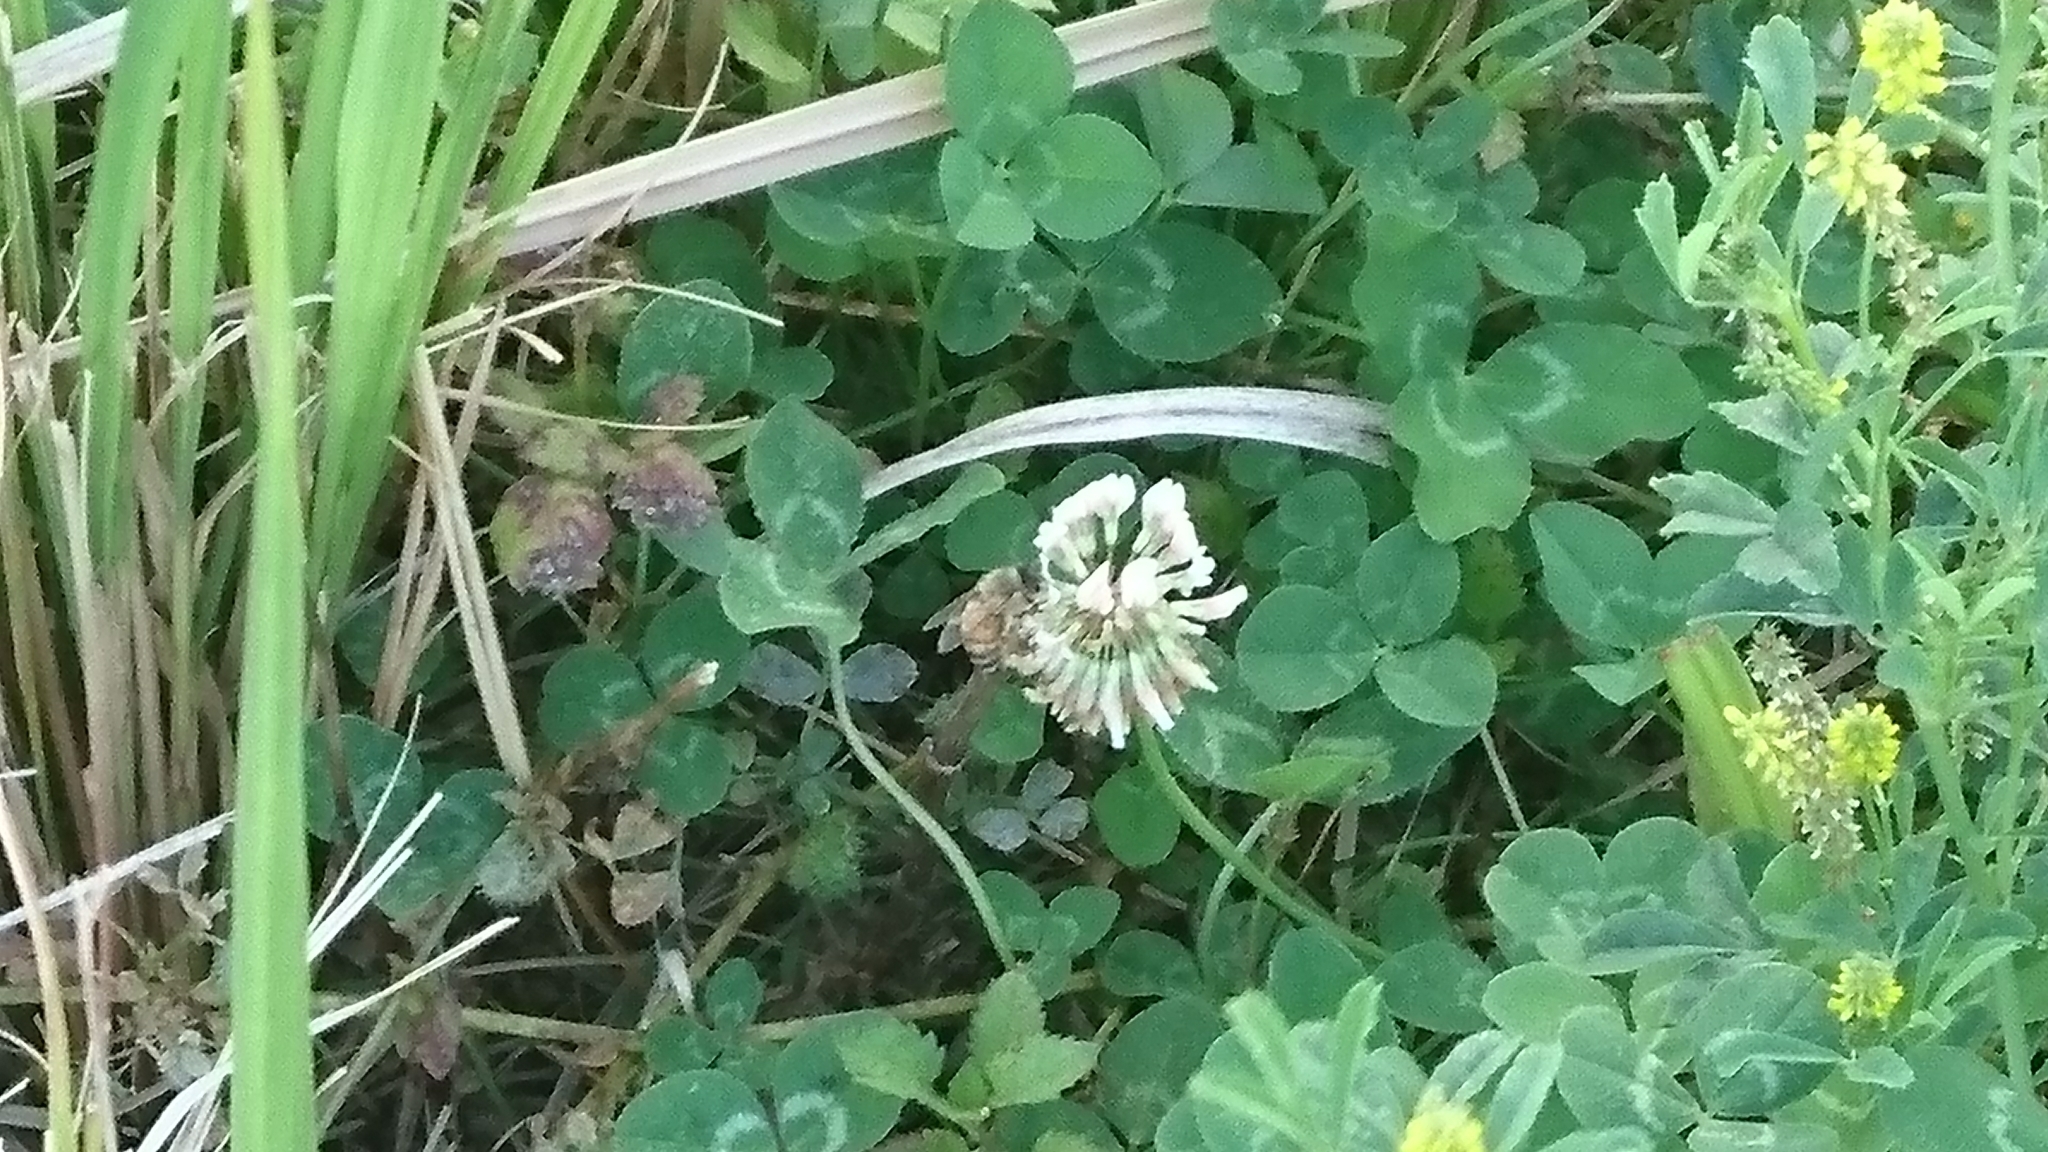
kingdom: Animalia
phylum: Arthropoda
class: Insecta
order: Hymenoptera
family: Apidae
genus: Apis
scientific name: Apis mellifera
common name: Honey bee
